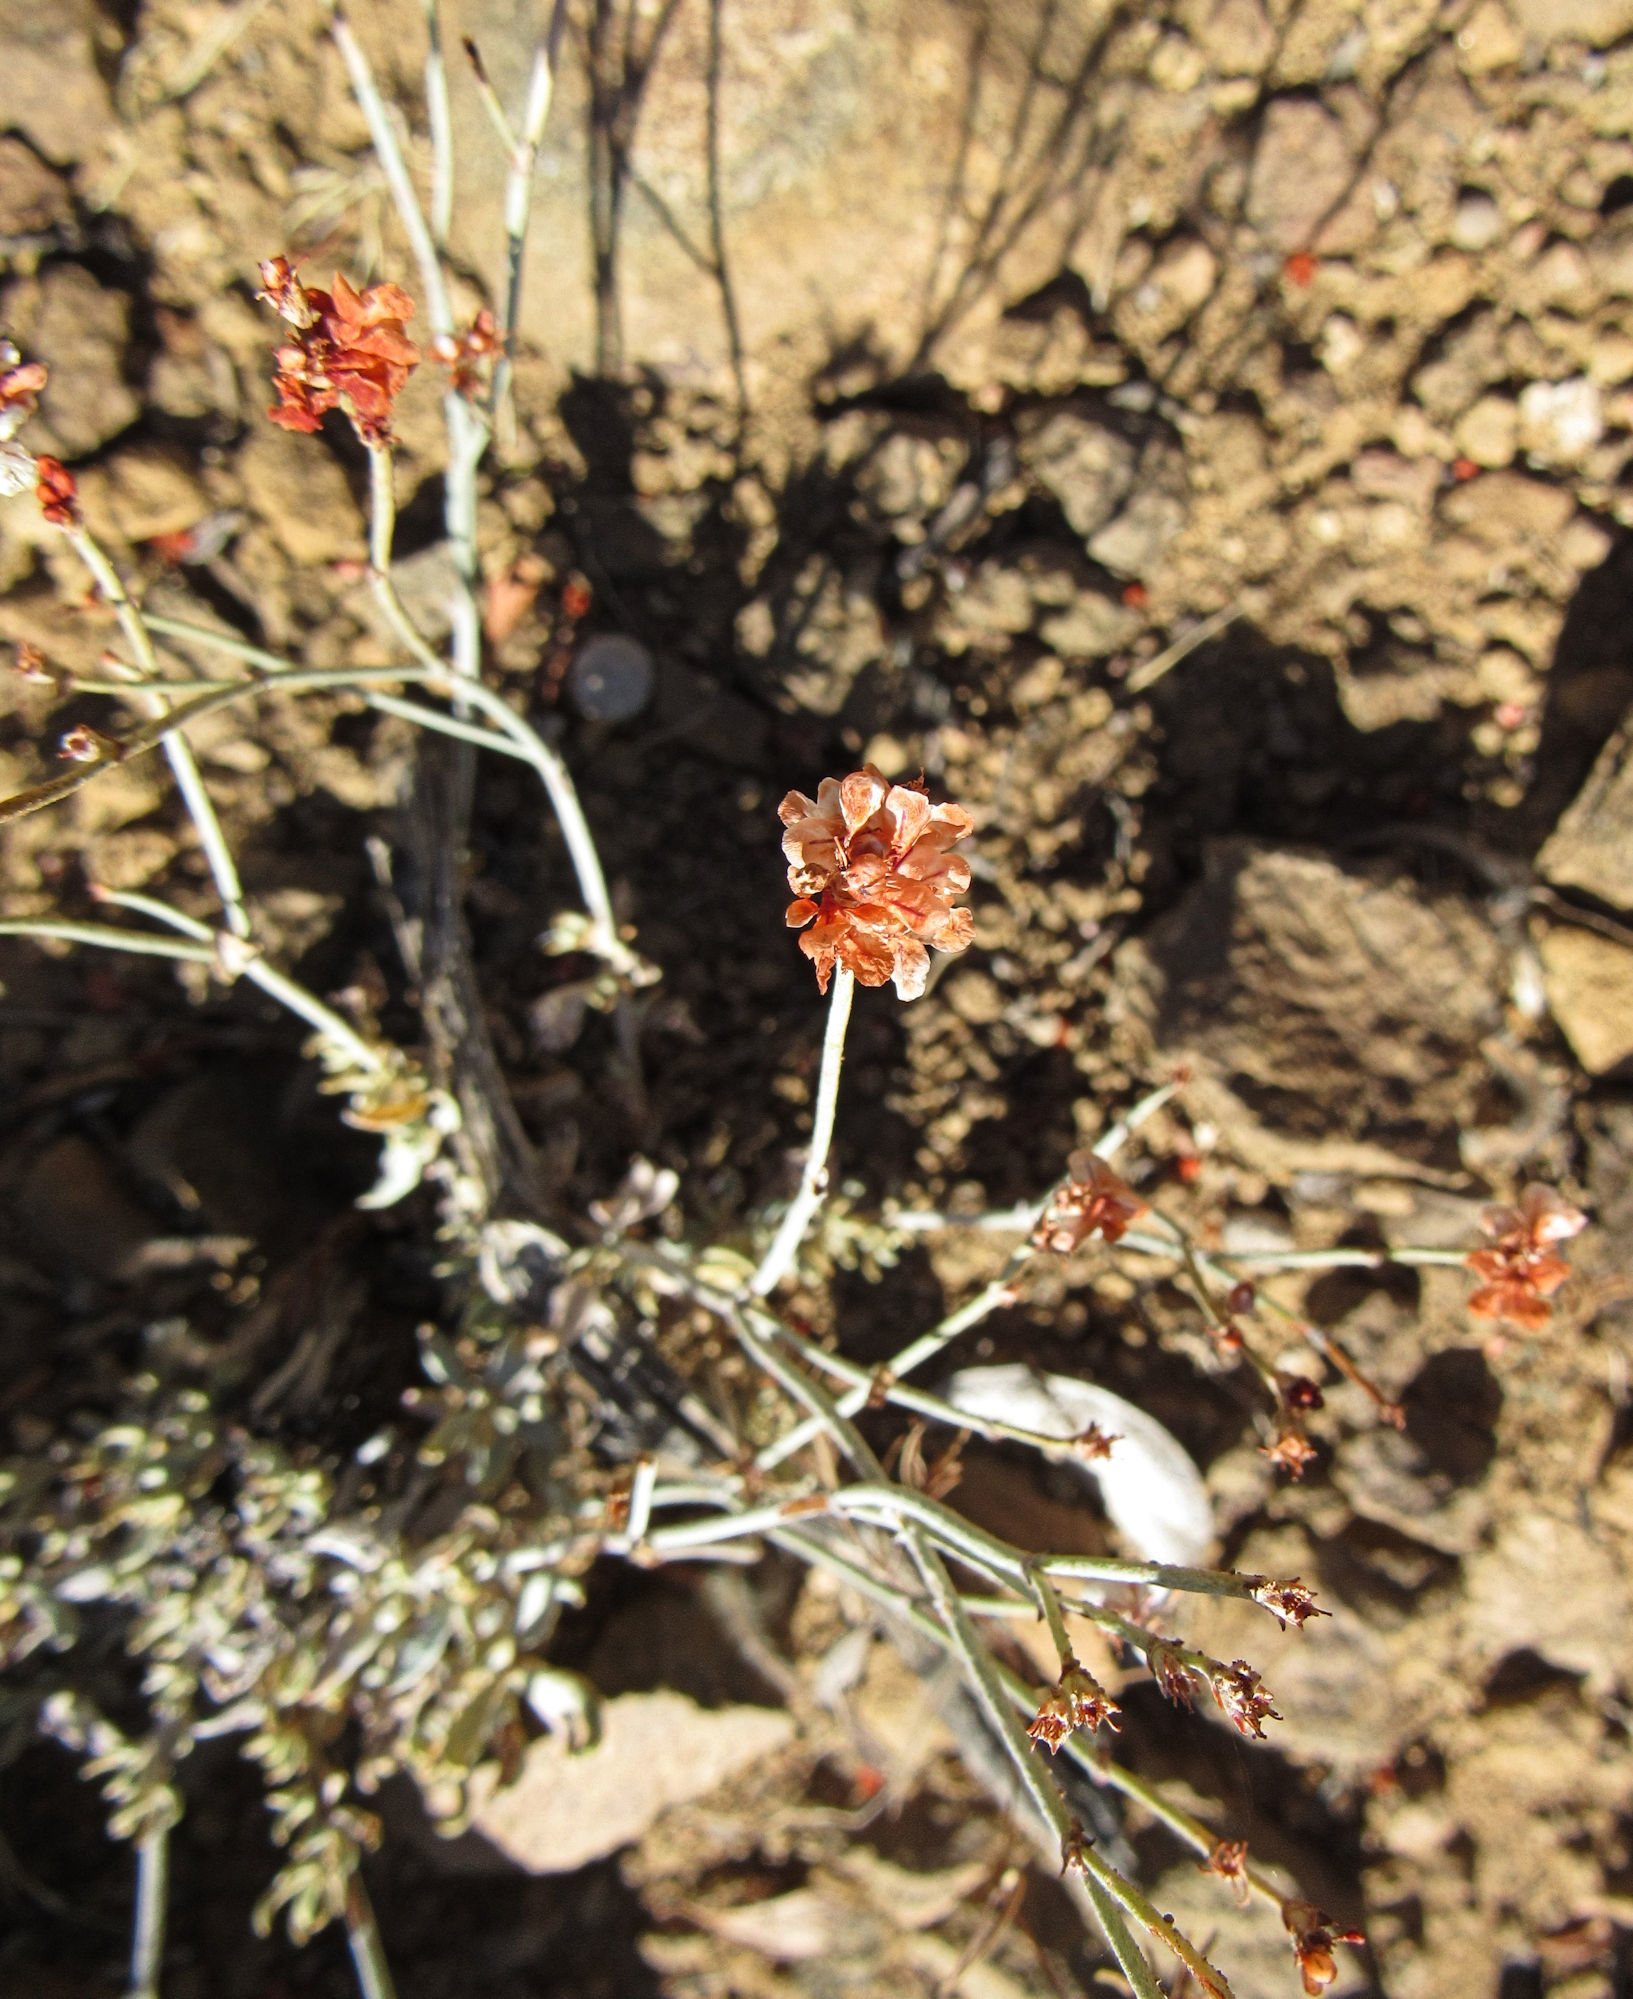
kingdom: Plantae
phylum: Tracheophyta
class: Magnoliopsida
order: Caryophyllales
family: Polygonaceae
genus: Eriogonum
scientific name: Eriogonum wrightii
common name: Bastard-sage
